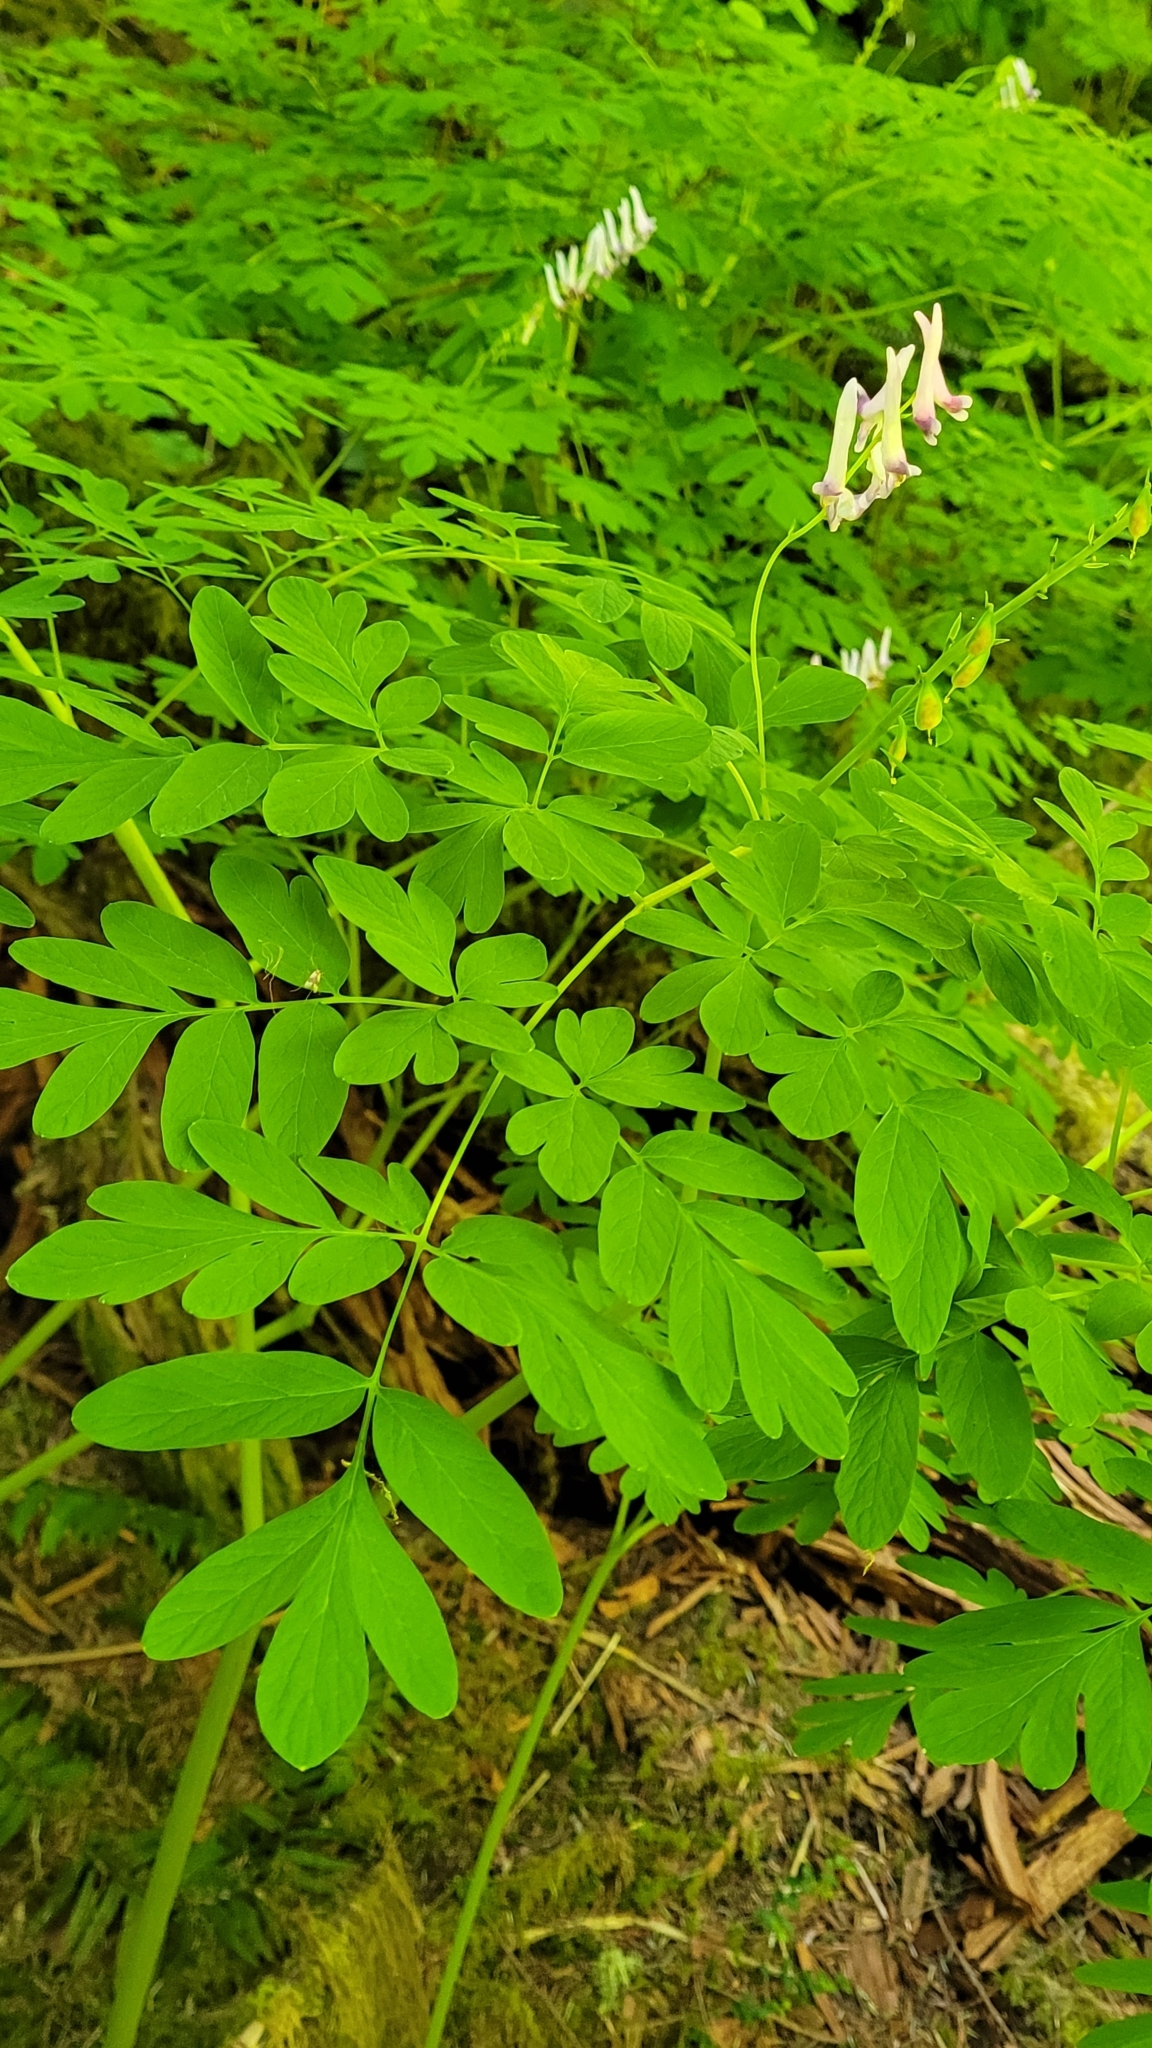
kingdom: Plantae
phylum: Tracheophyta
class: Magnoliopsida
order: Ranunculales
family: Papaveraceae
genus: Corydalis
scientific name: Corydalis scouleri
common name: Scouler's corydalis
